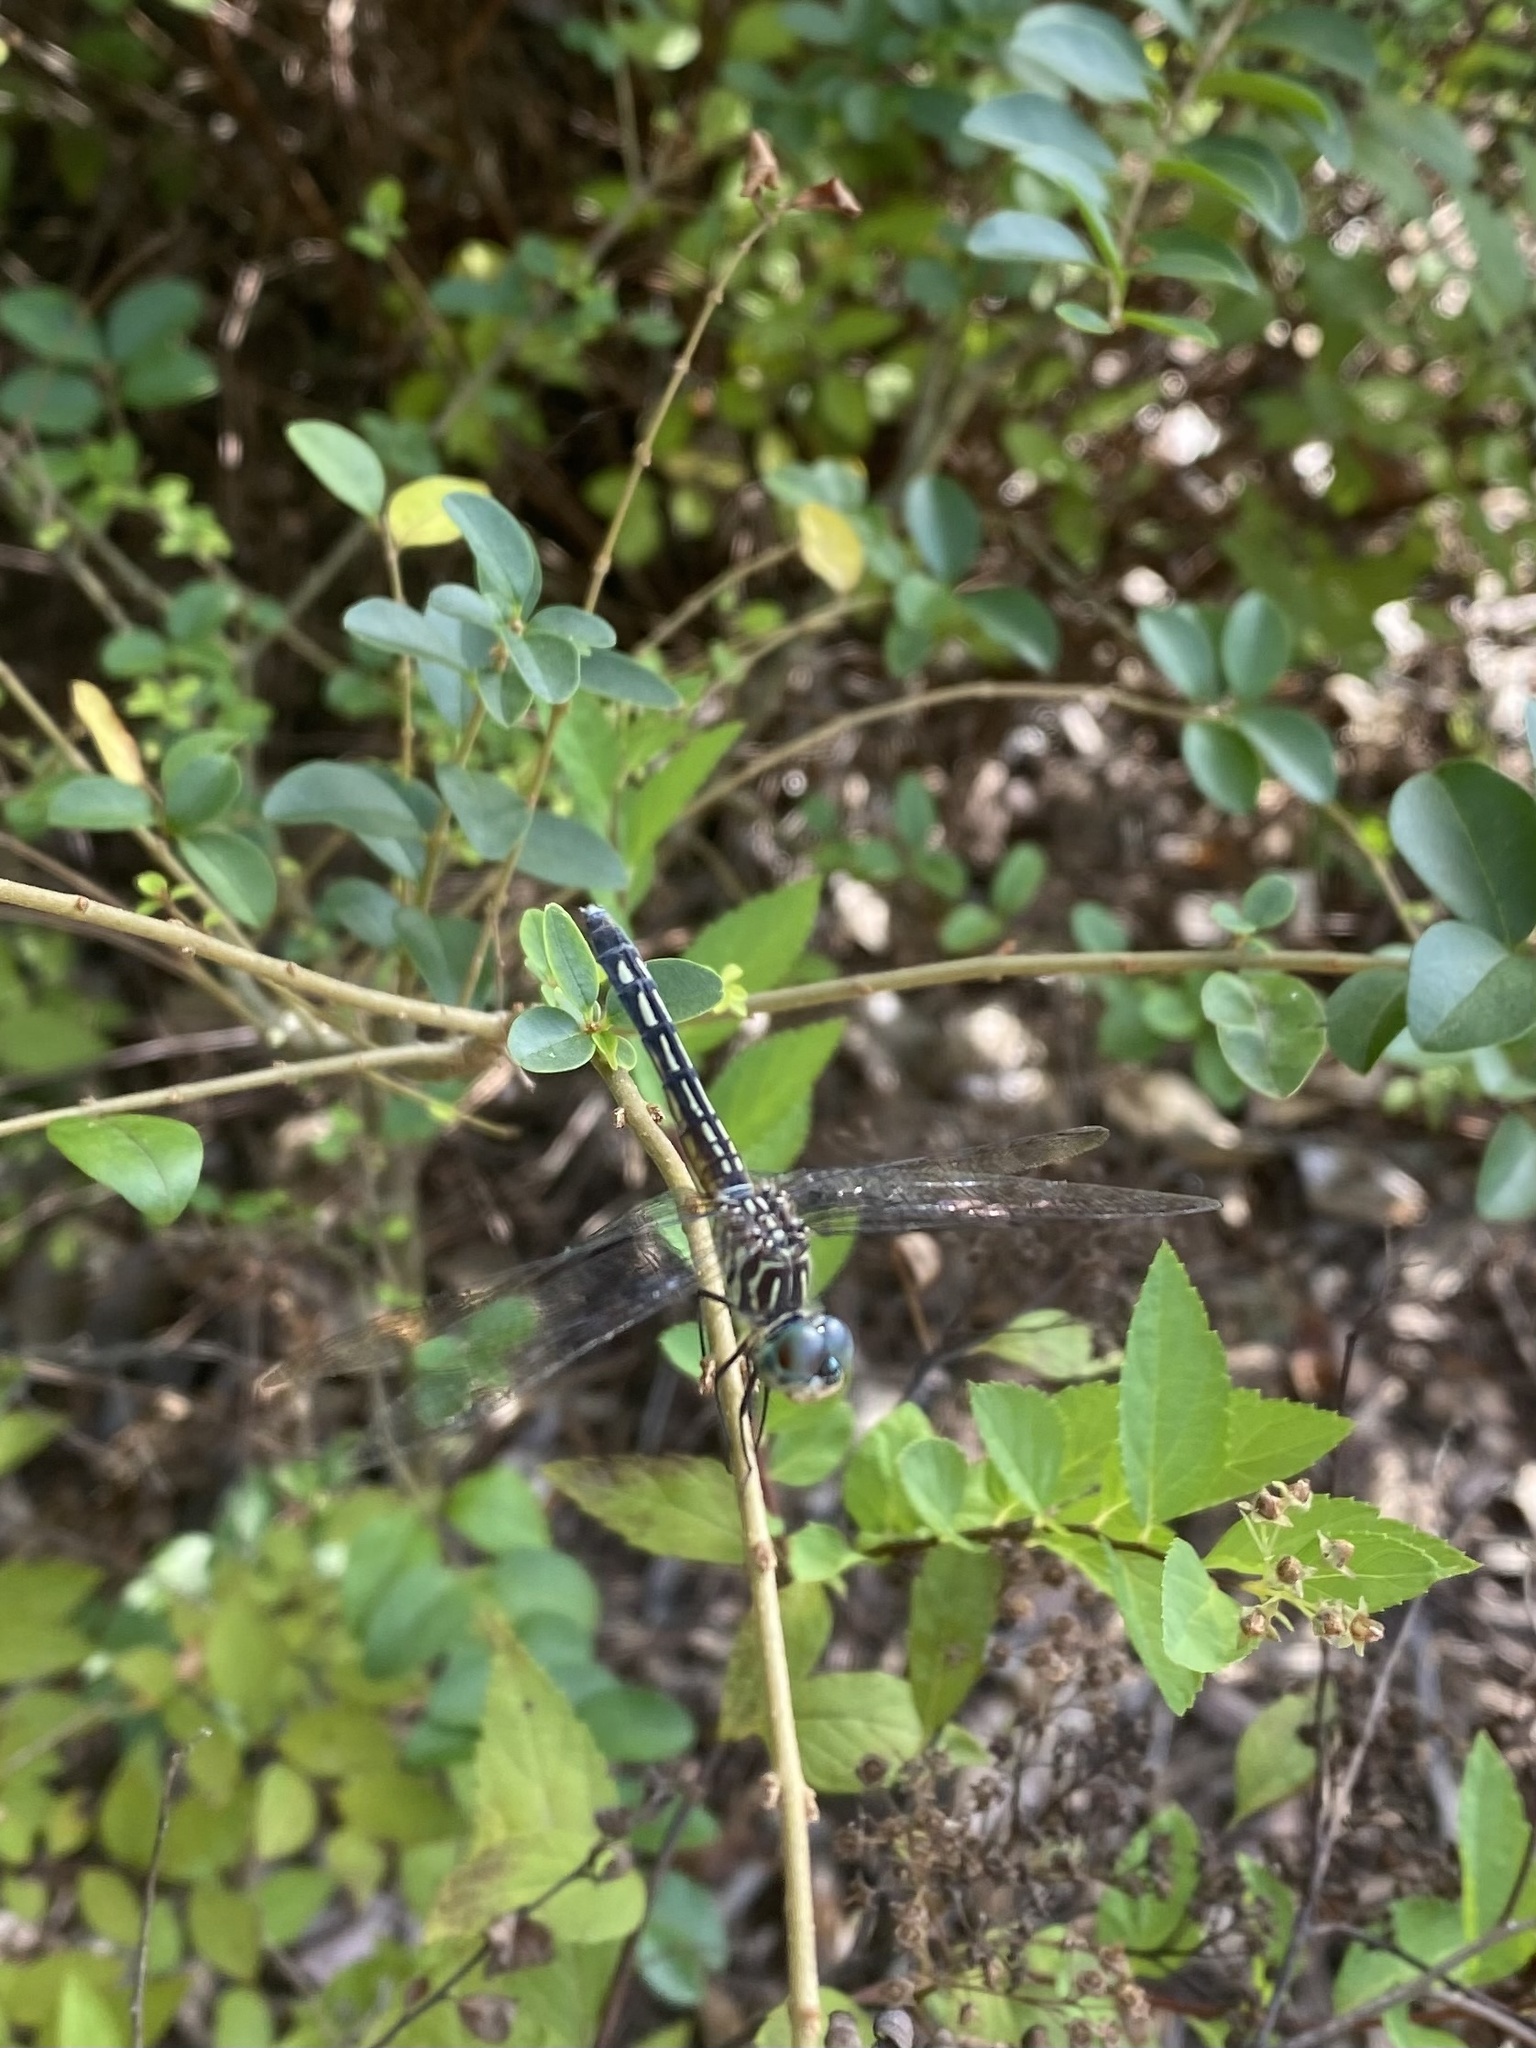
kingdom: Animalia
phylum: Arthropoda
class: Insecta
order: Odonata
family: Libellulidae
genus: Pachydiplax
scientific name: Pachydiplax longipennis
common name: Blue dasher
